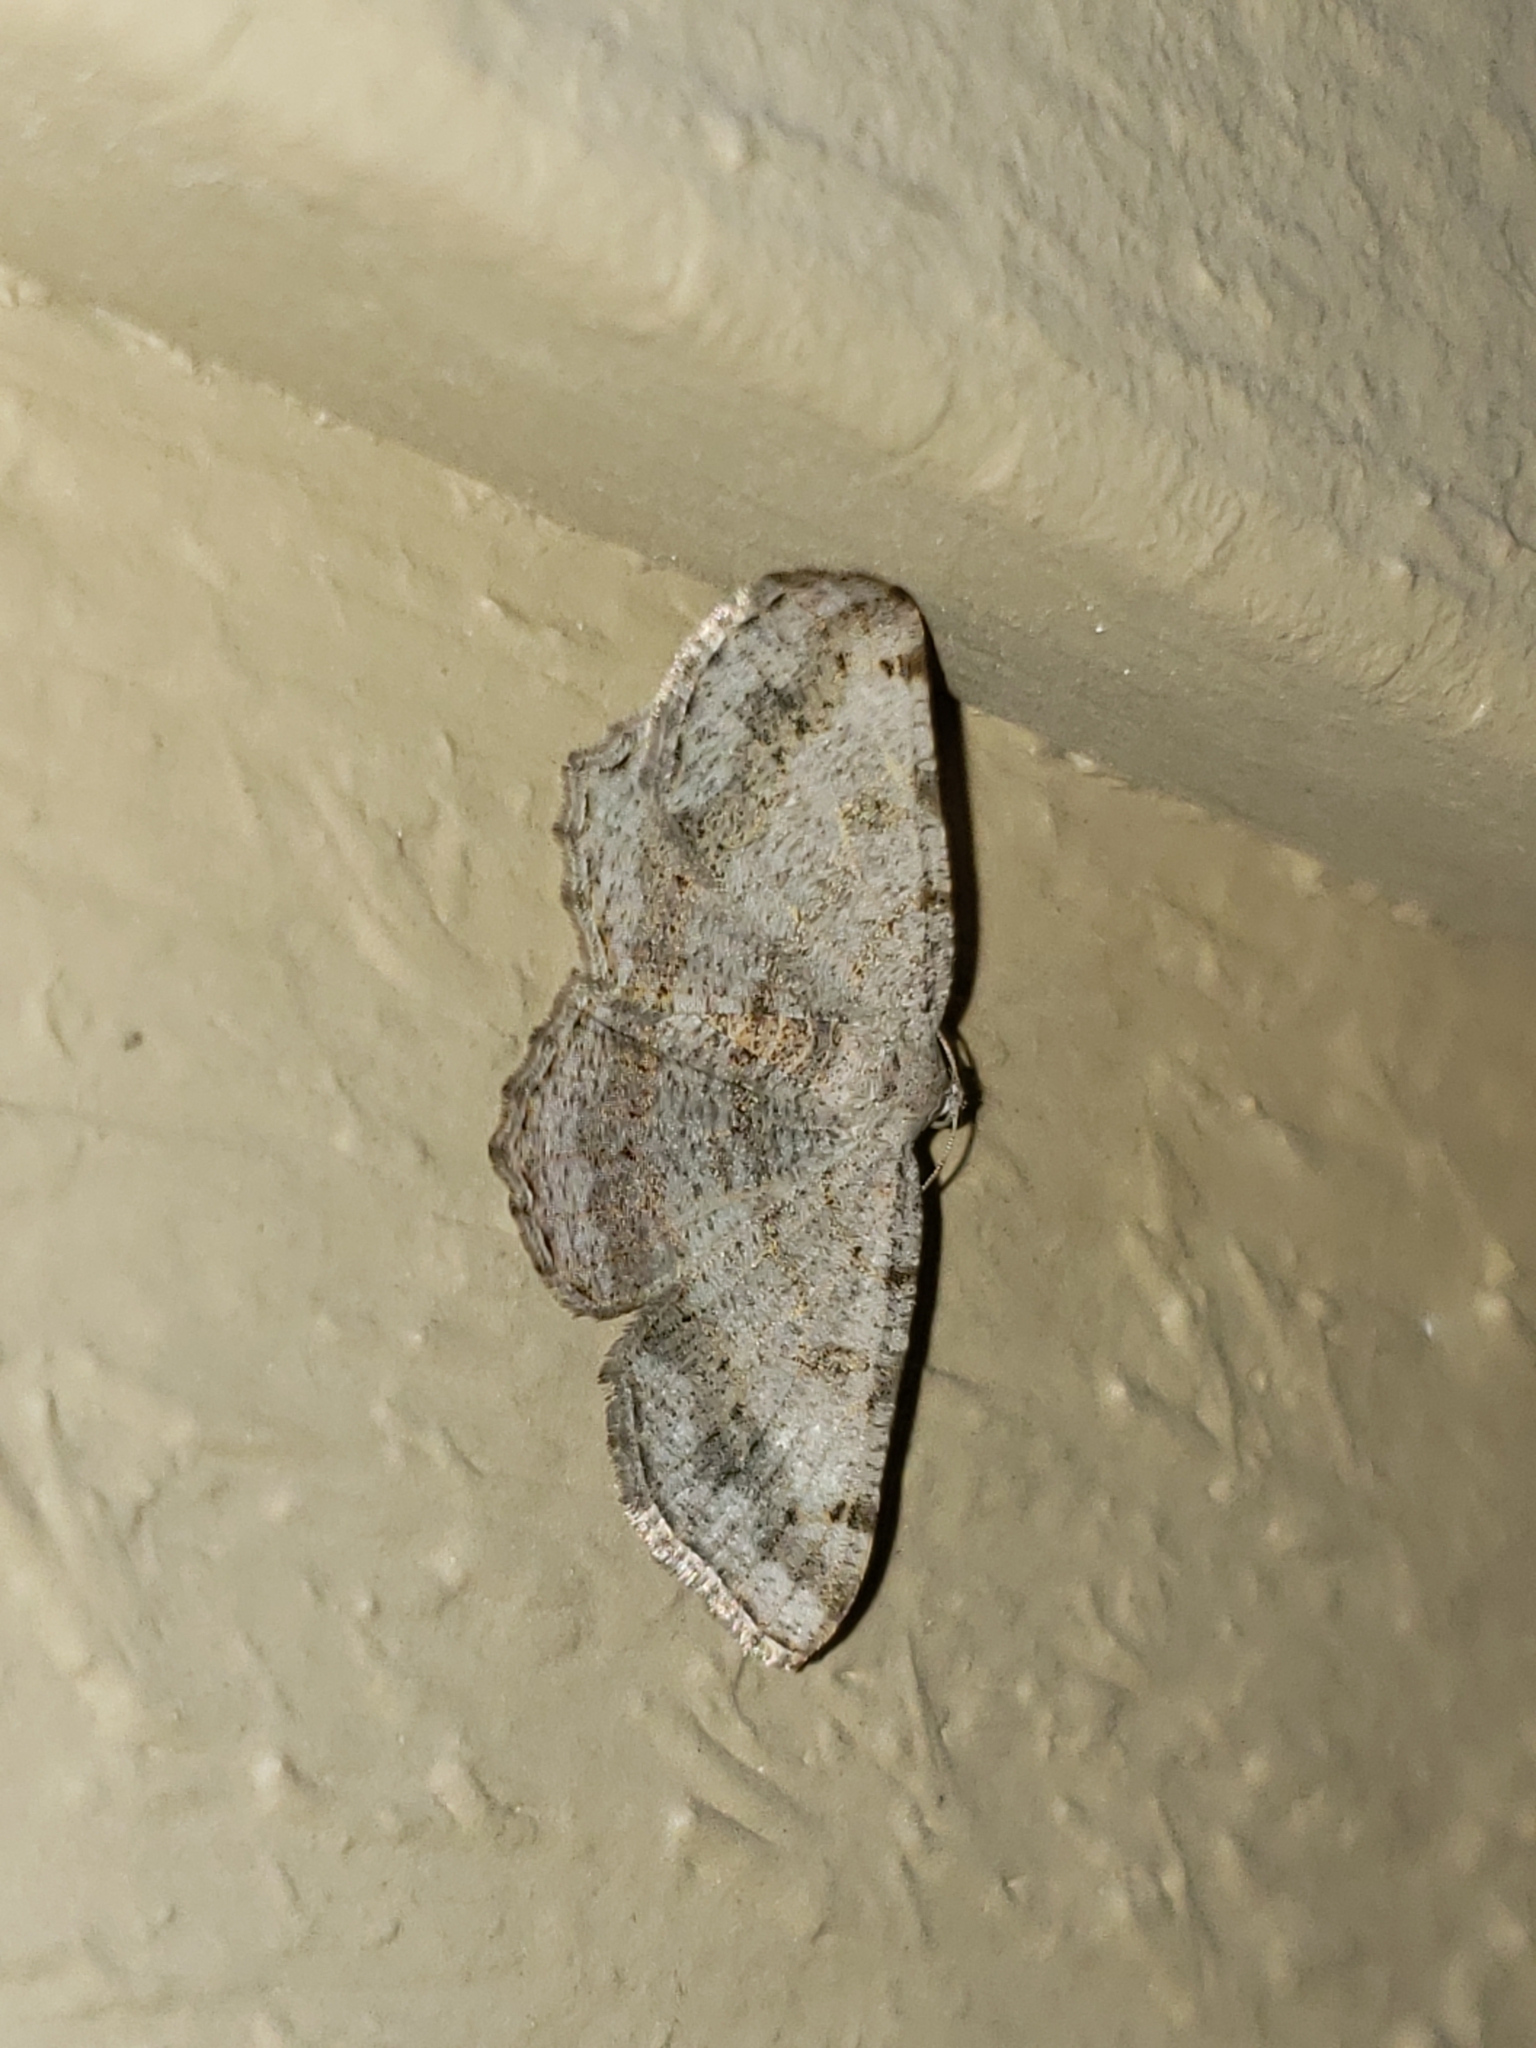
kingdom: Animalia
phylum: Arthropoda
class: Insecta
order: Lepidoptera
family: Geometridae
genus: Digrammia
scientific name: Digrammia ocellinata
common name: Faint-spotted angle
